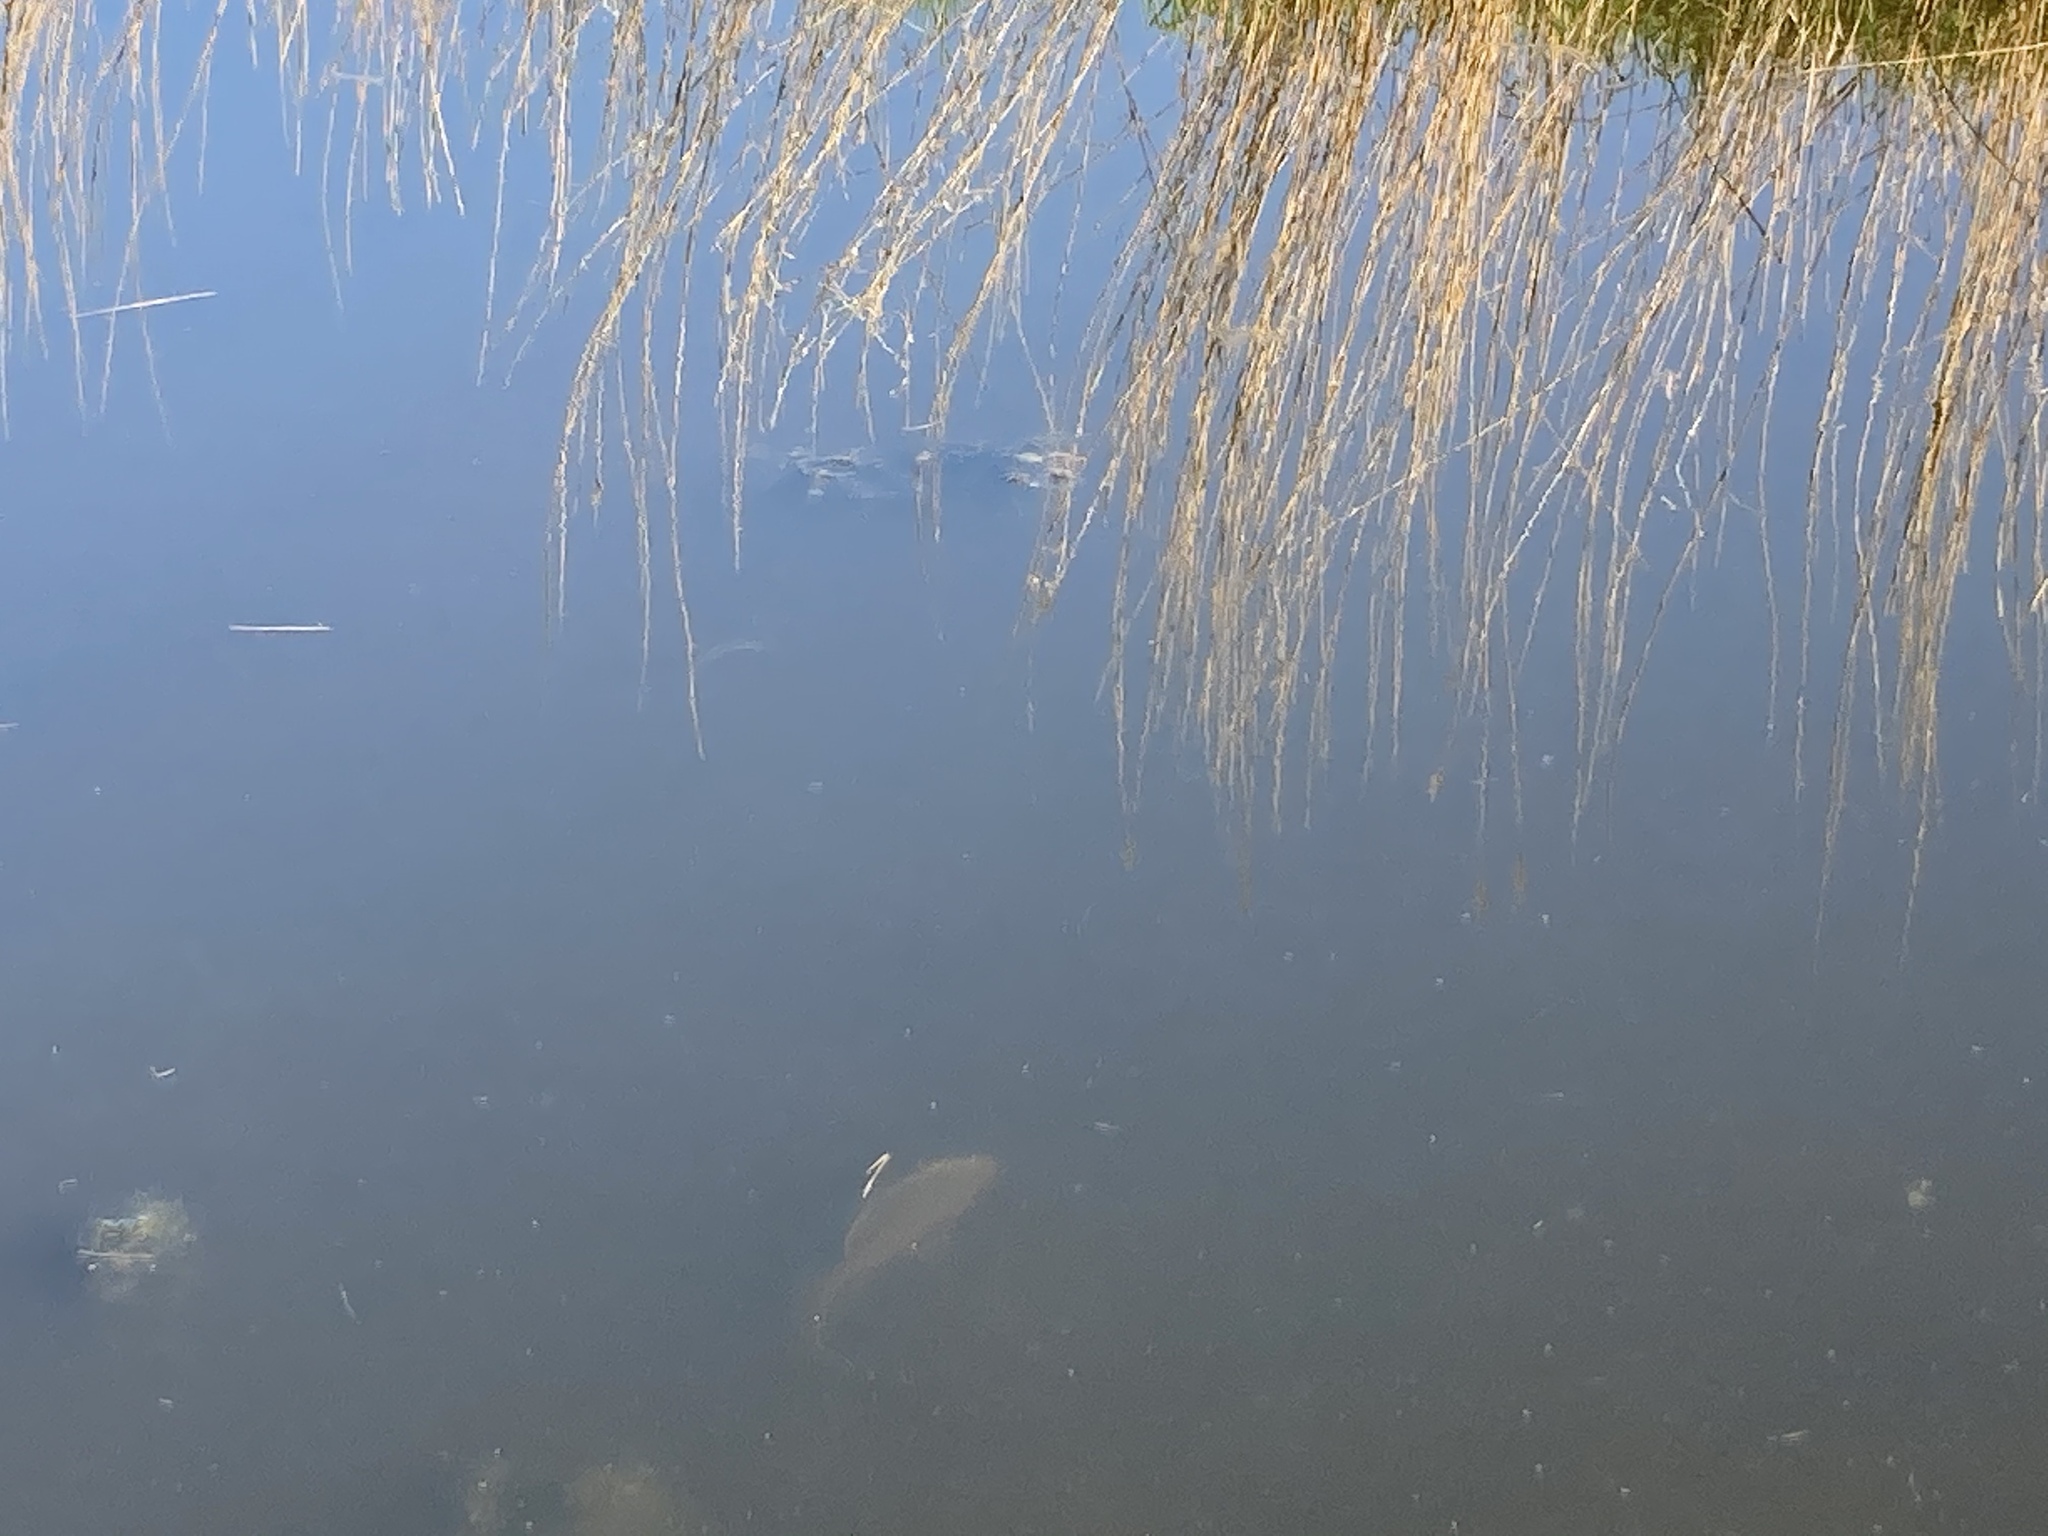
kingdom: Animalia
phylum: Chordata
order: Cypriniformes
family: Cyprinidae
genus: Cyprinus
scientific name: Cyprinus carpio
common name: Common carp
